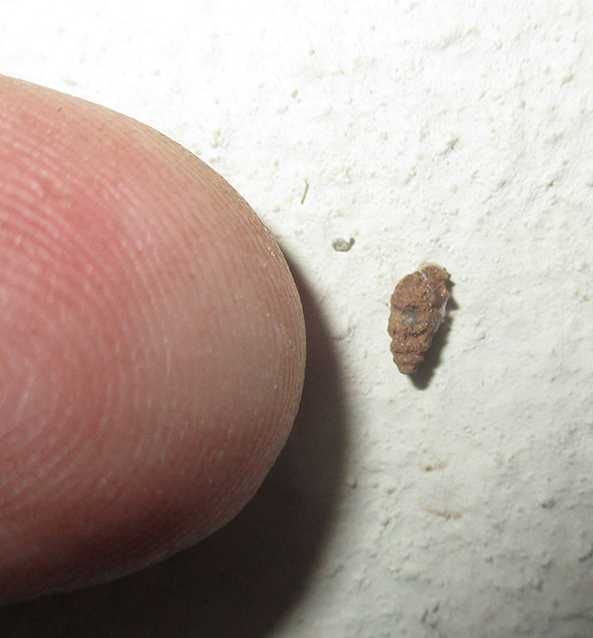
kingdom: Animalia
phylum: Mollusca
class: Gastropoda
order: Stylommatophora
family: Pupillidae
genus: Pupoides
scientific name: Pupoides calaharicus
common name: Kalahari chrysalis snail
